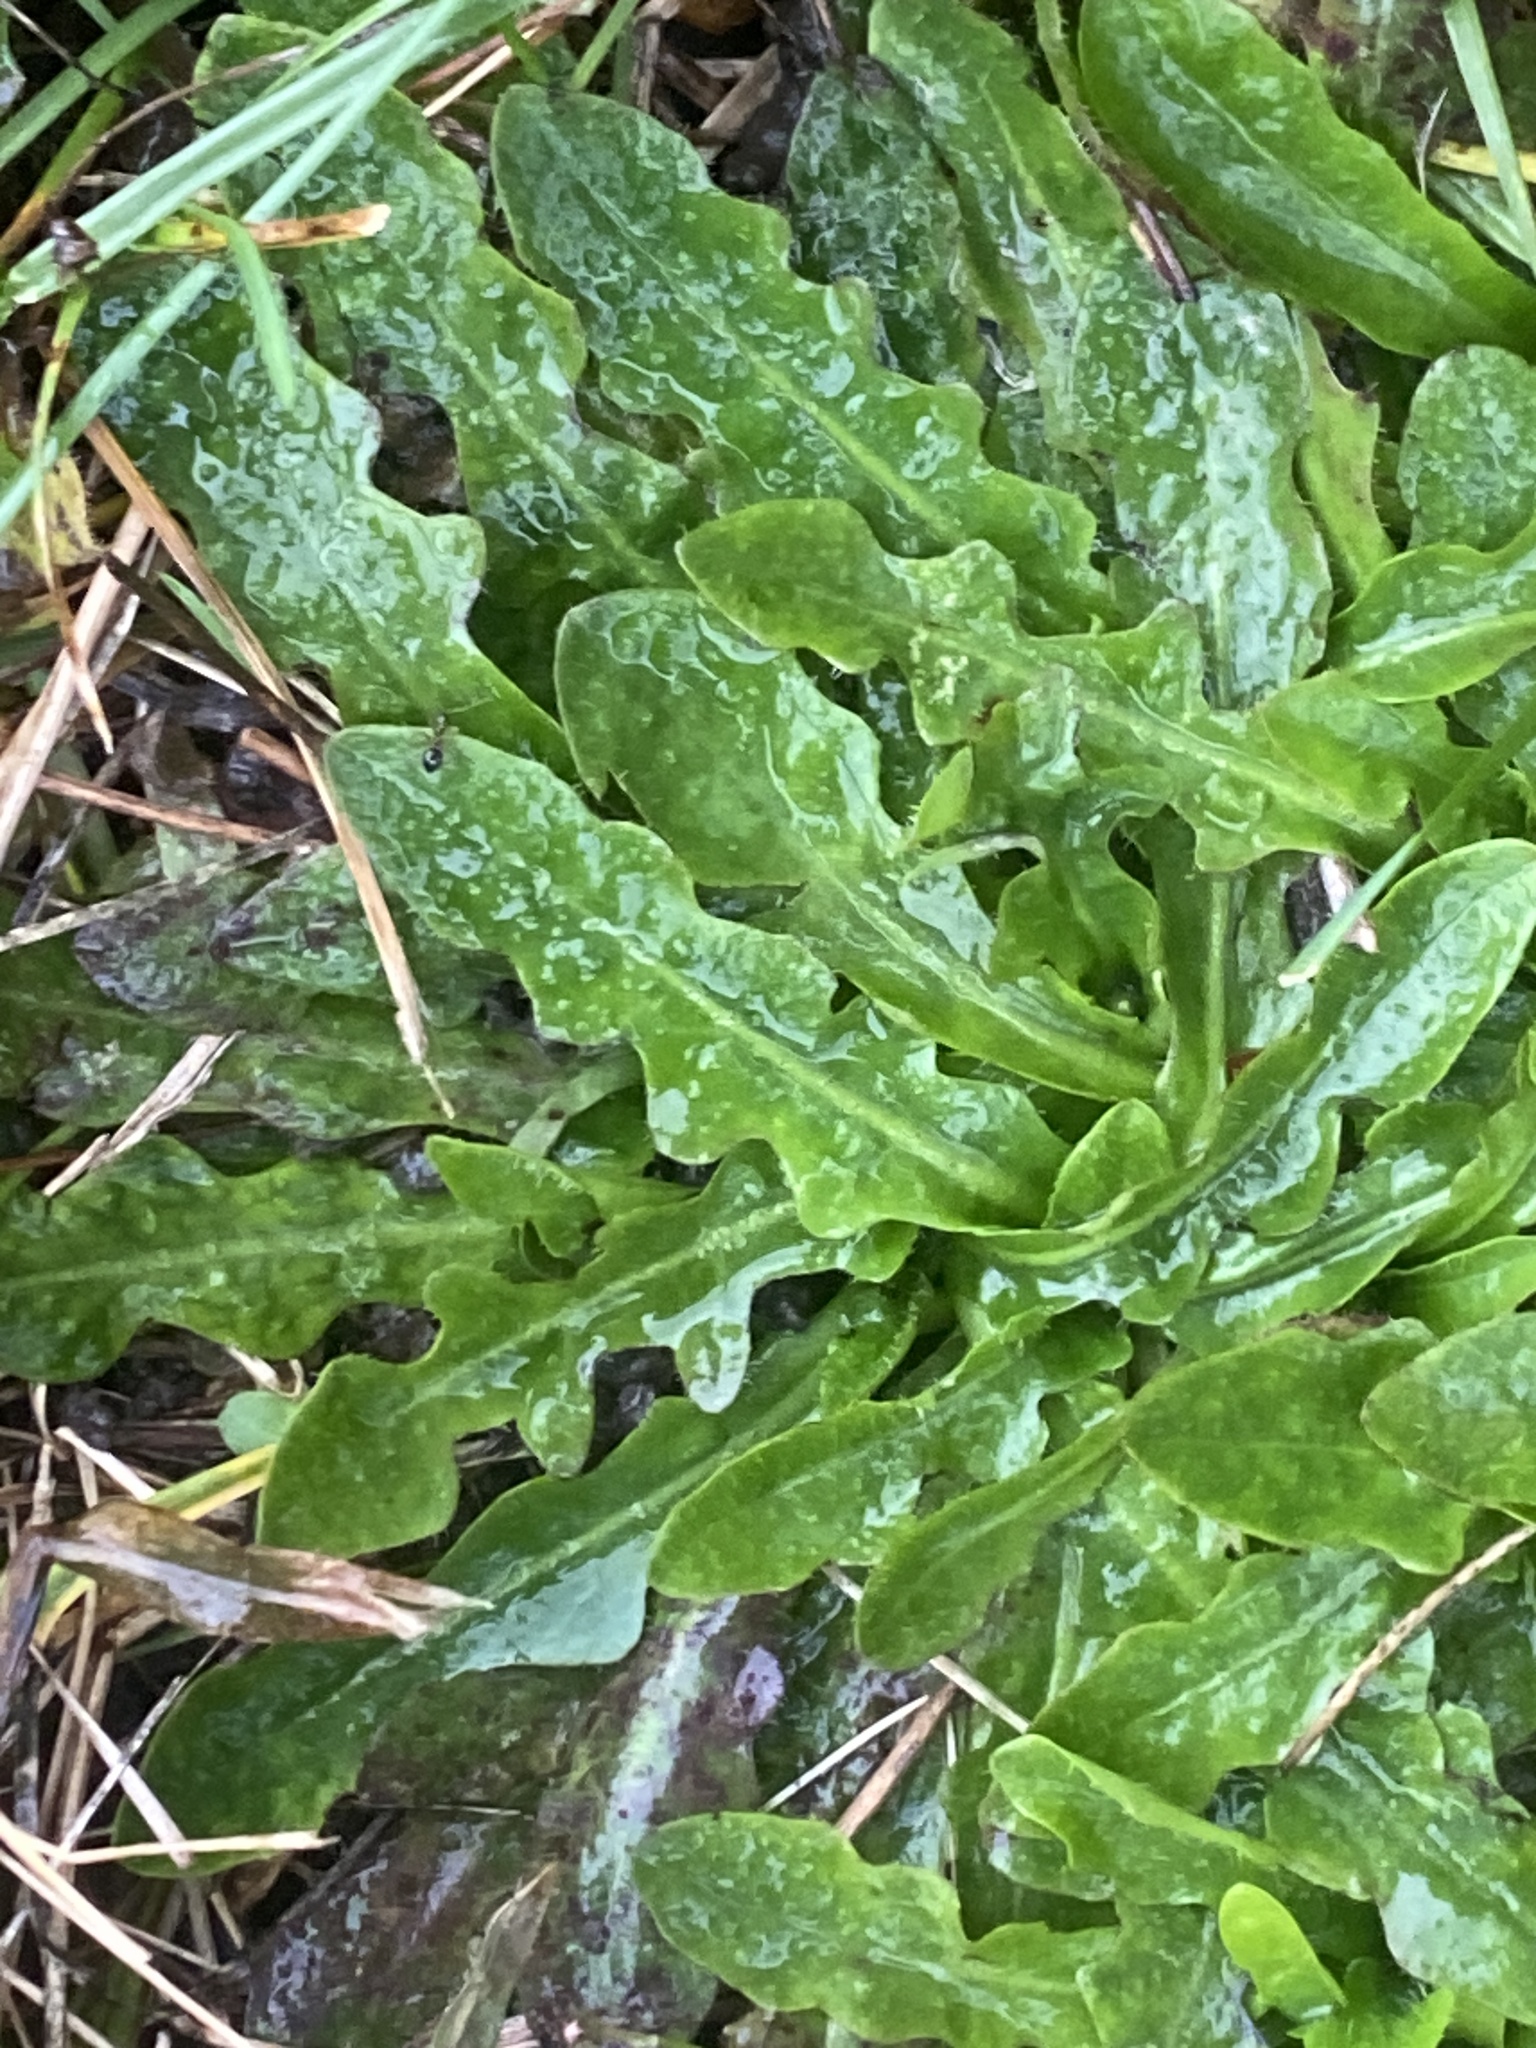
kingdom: Plantae
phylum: Tracheophyta
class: Magnoliopsida
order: Asterales
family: Asteraceae
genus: Hypochaeris
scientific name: Hypochaeris radicata
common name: Flatweed
